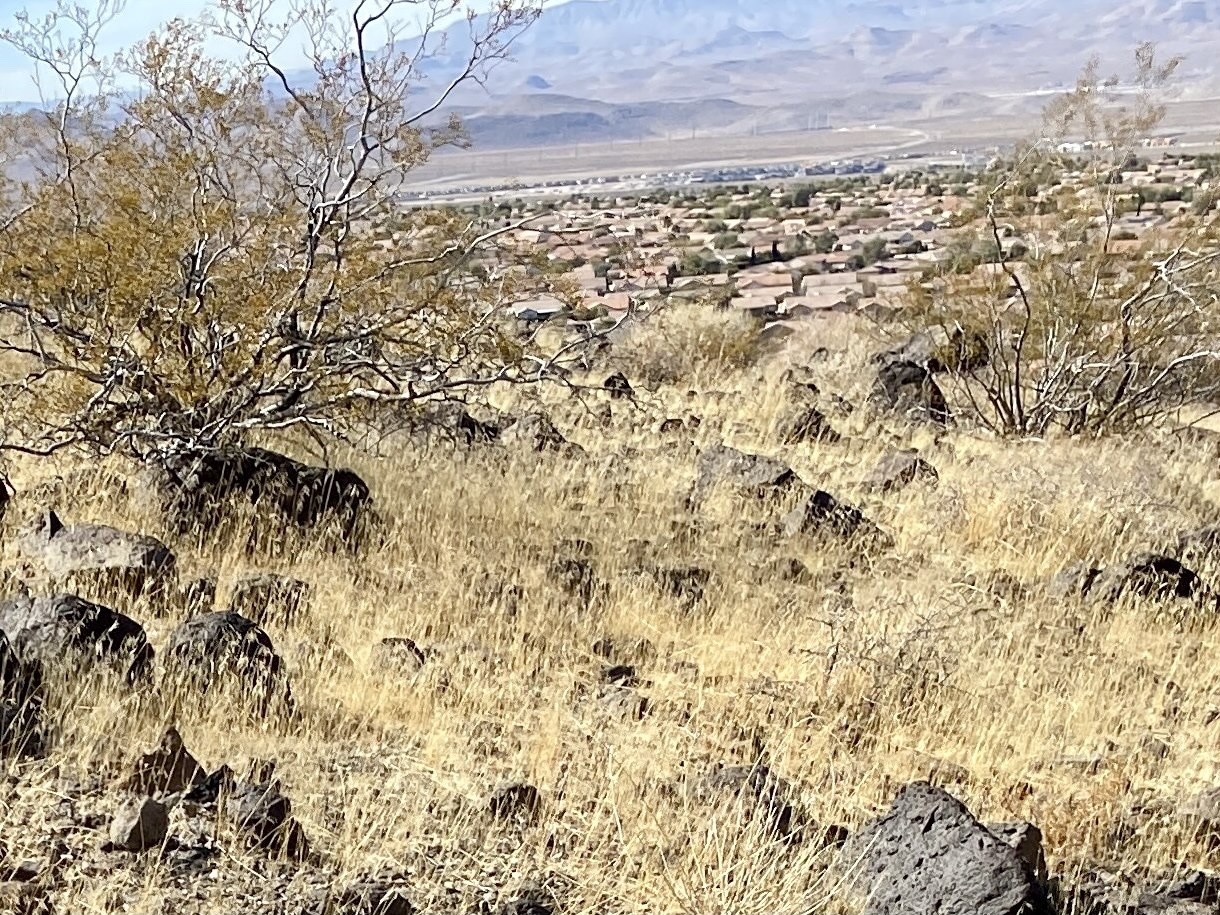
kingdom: Plantae
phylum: Tracheophyta
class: Magnoliopsida
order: Zygophyllales
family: Zygophyllaceae
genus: Larrea
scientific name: Larrea tridentata
